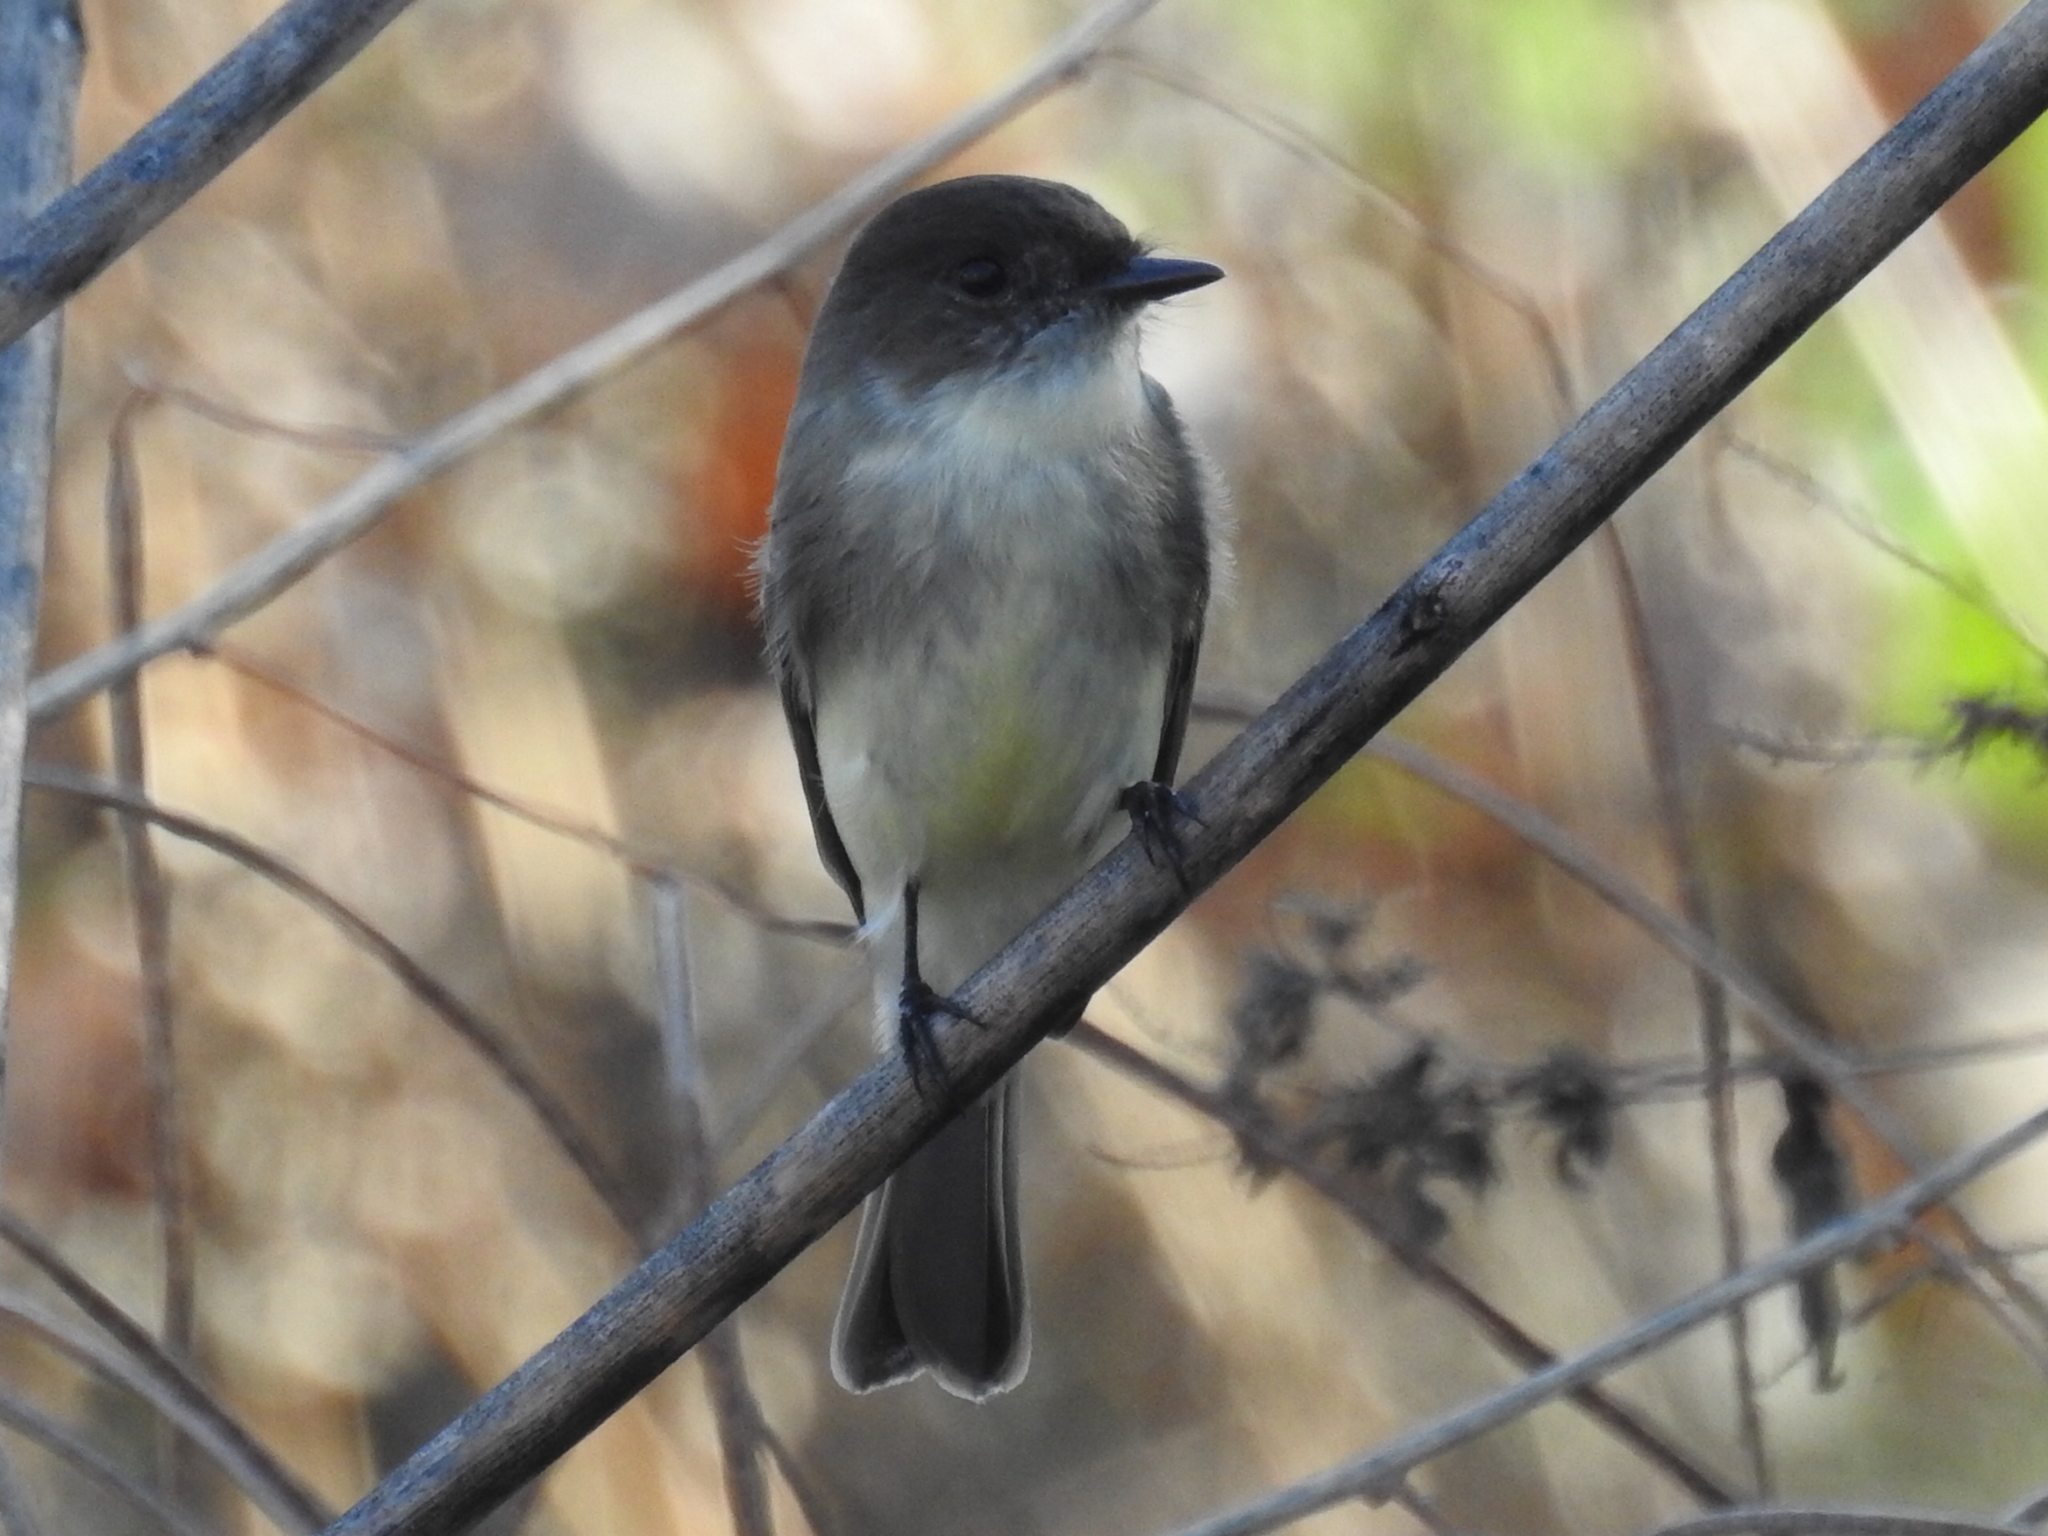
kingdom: Animalia
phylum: Chordata
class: Aves
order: Passeriformes
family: Tyrannidae
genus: Sayornis
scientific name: Sayornis phoebe
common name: Eastern phoebe
